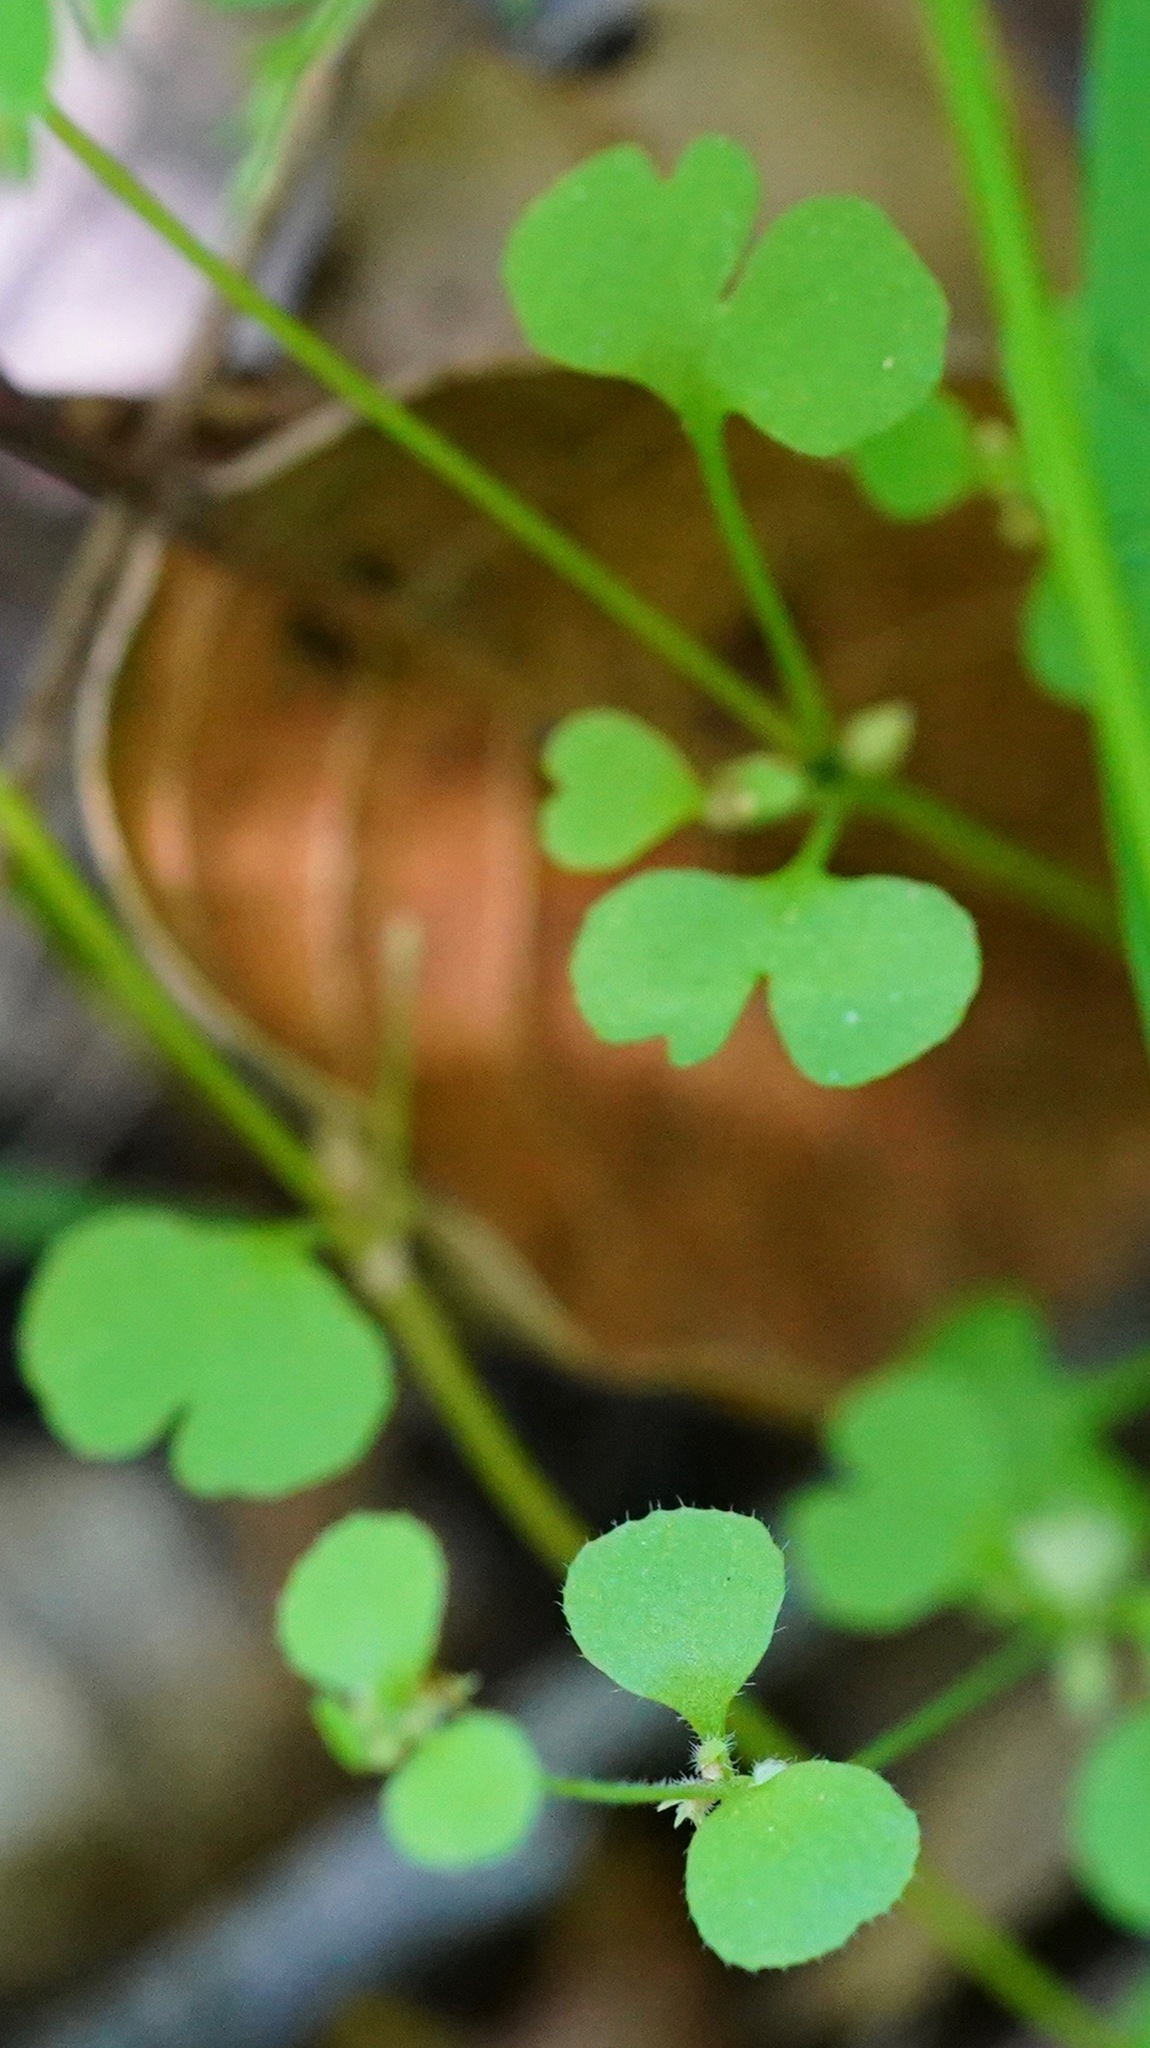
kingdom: Plantae
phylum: Tracheophyta
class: Magnoliopsida
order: Caryophyllales
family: Polygonaceae
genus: Pterostegia
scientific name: Pterostegia drymarioides
